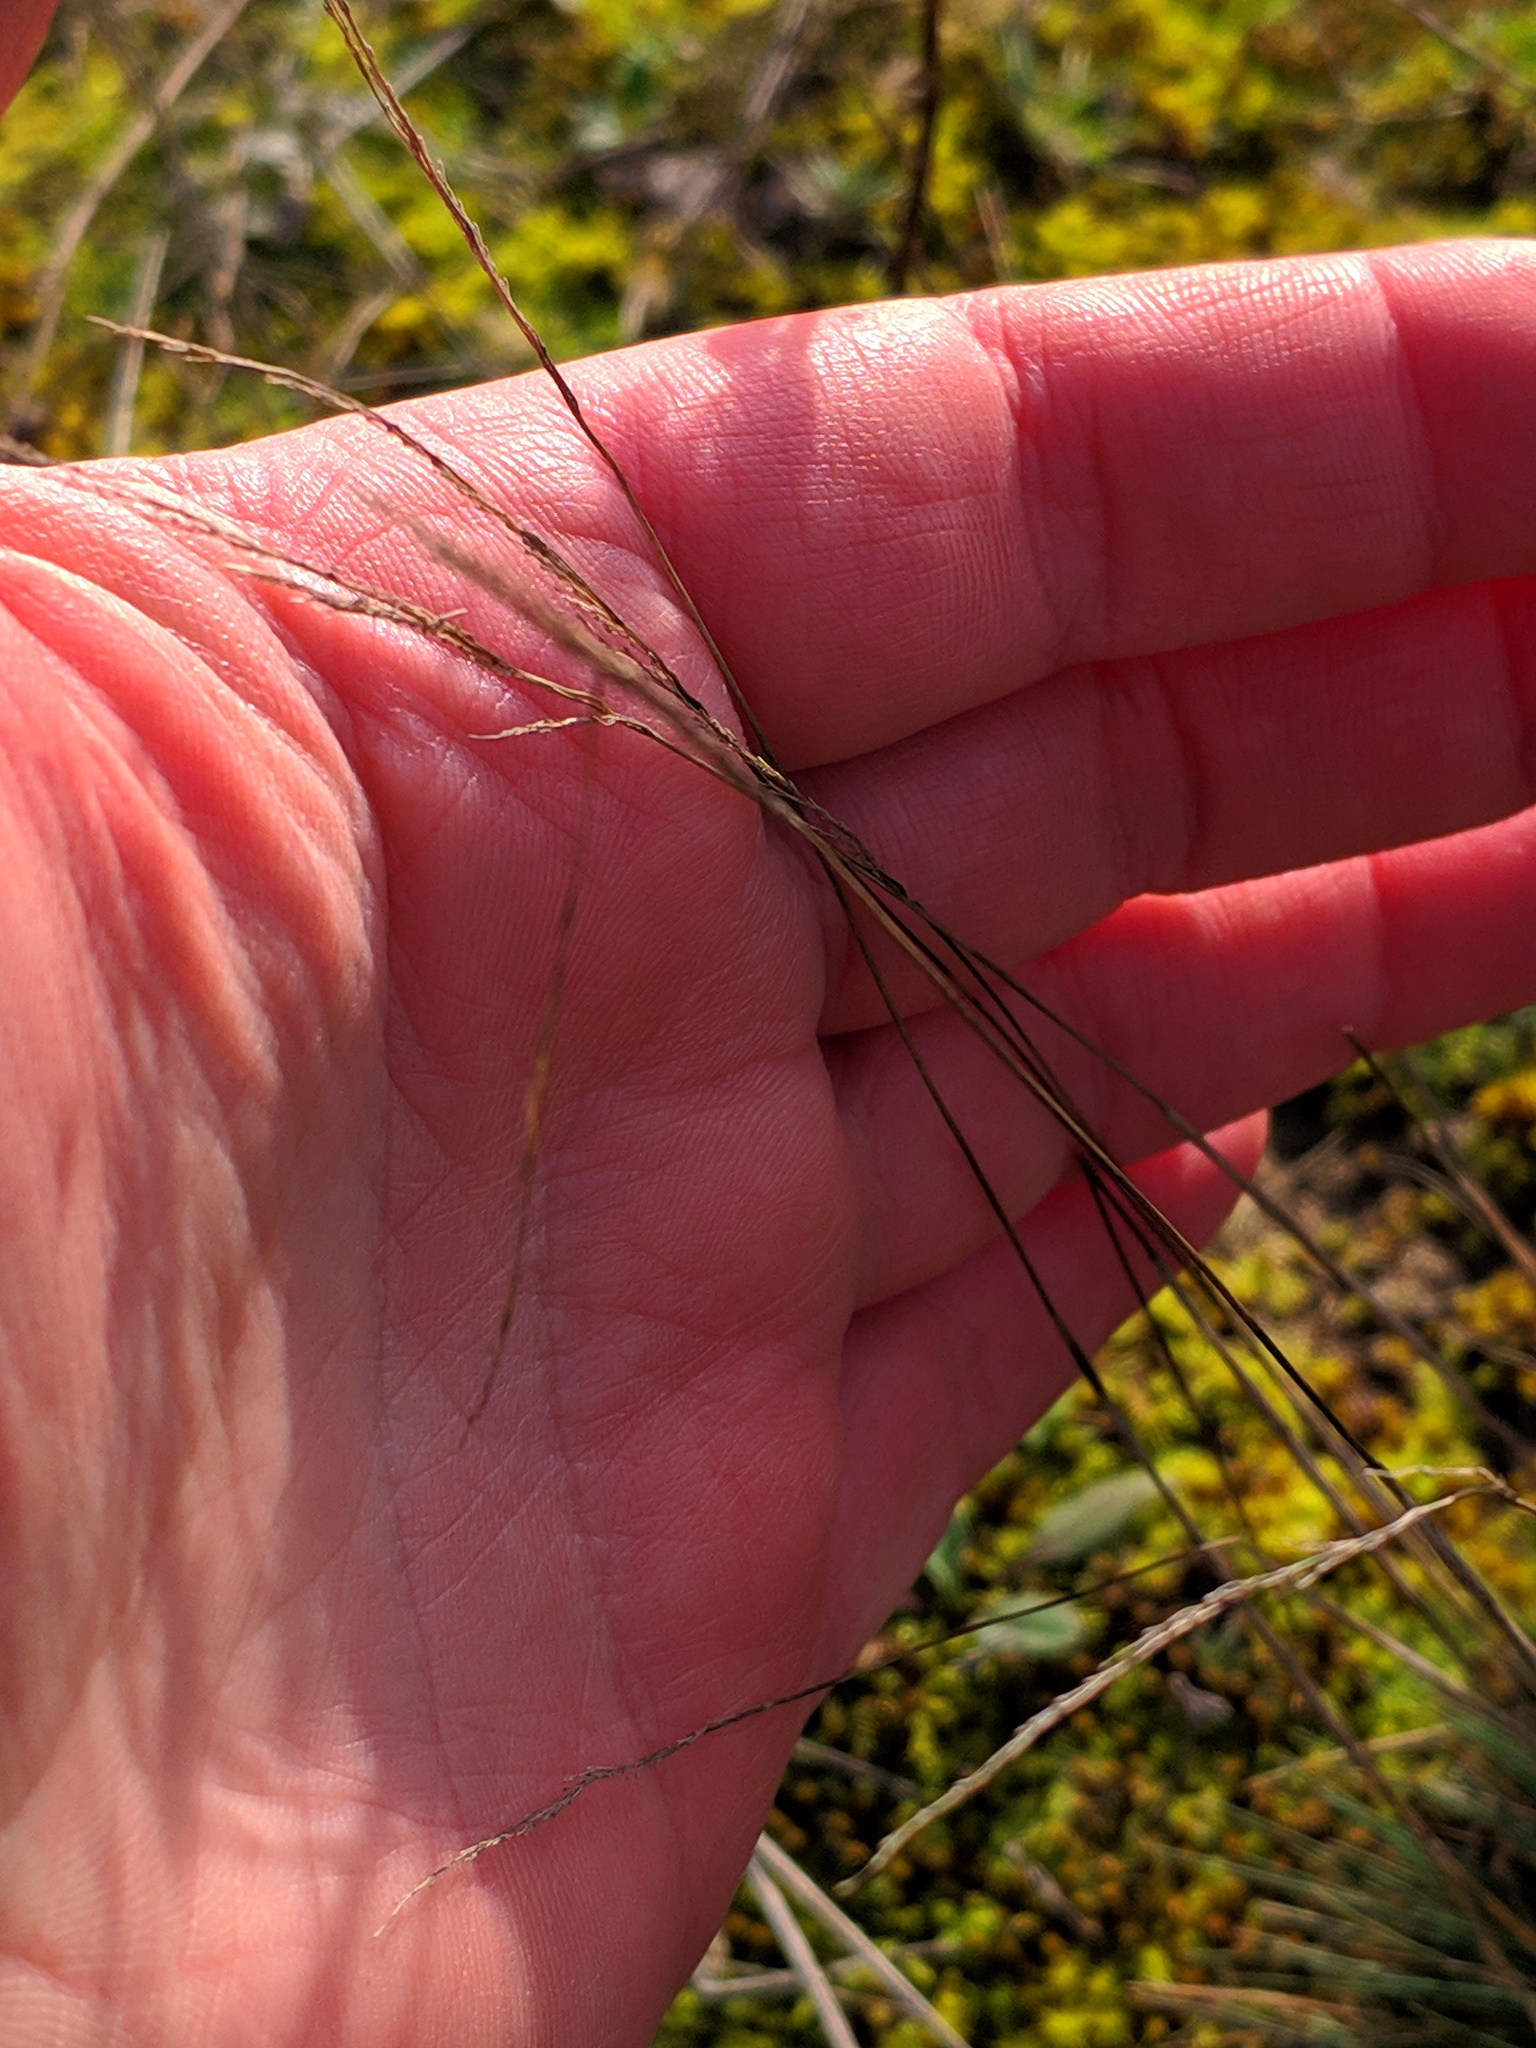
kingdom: Plantae
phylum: Tracheophyta
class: Liliopsida
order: Poales
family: Poaceae
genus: Corynephorus
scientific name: Corynephorus canescens
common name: Grey hair-grass
